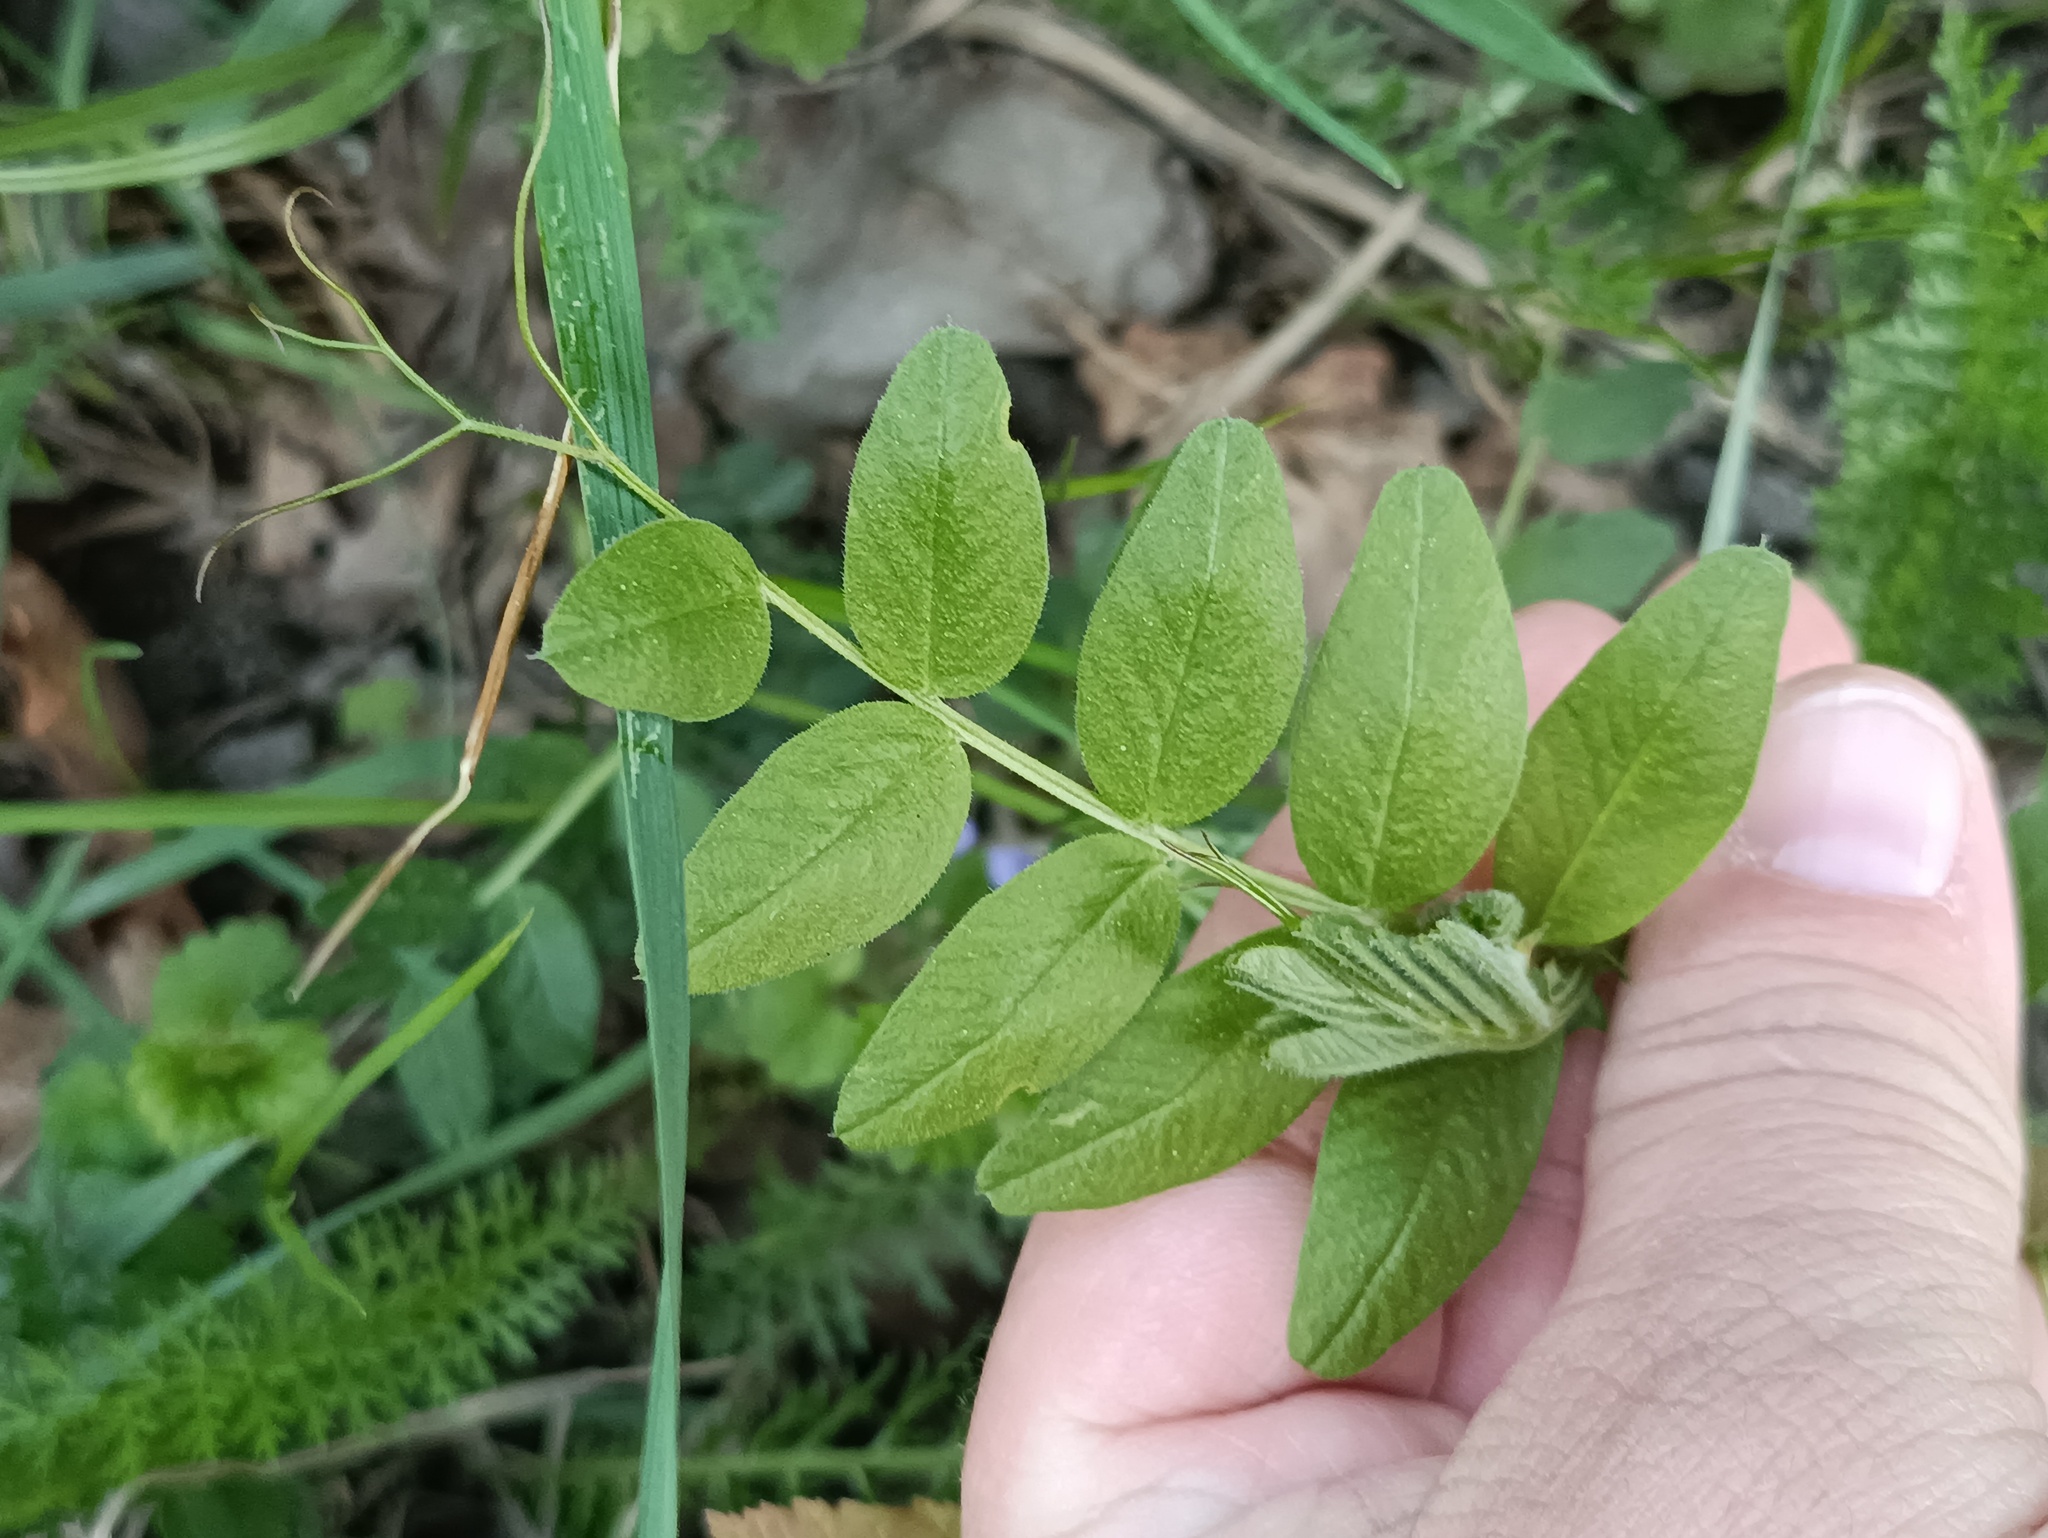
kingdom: Plantae
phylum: Tracheophyta
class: Magnoliopsida
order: Fabales
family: Fabaceae
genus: Vicia
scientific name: Vicia sepium
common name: Bush vetch
